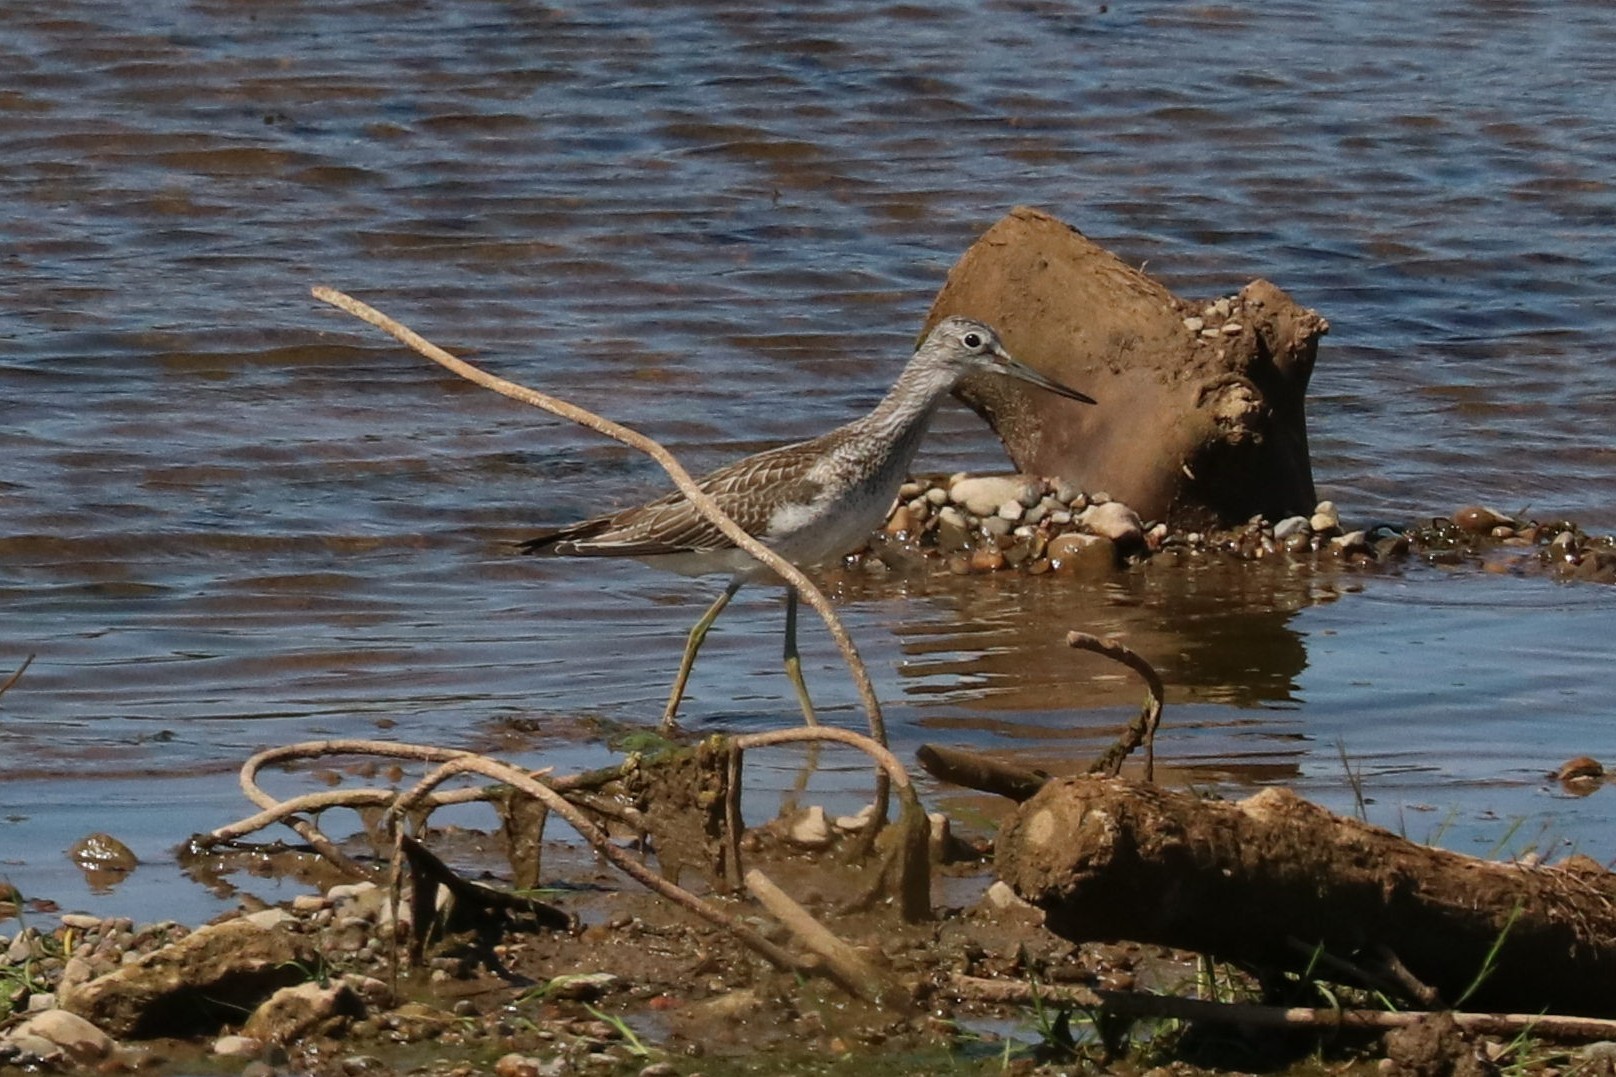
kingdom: Animalia
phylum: Chordata
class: Aves
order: Charadriiformes
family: Scolopacidae
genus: Tringa
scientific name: Tringa nebularia
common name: Common greenshank
